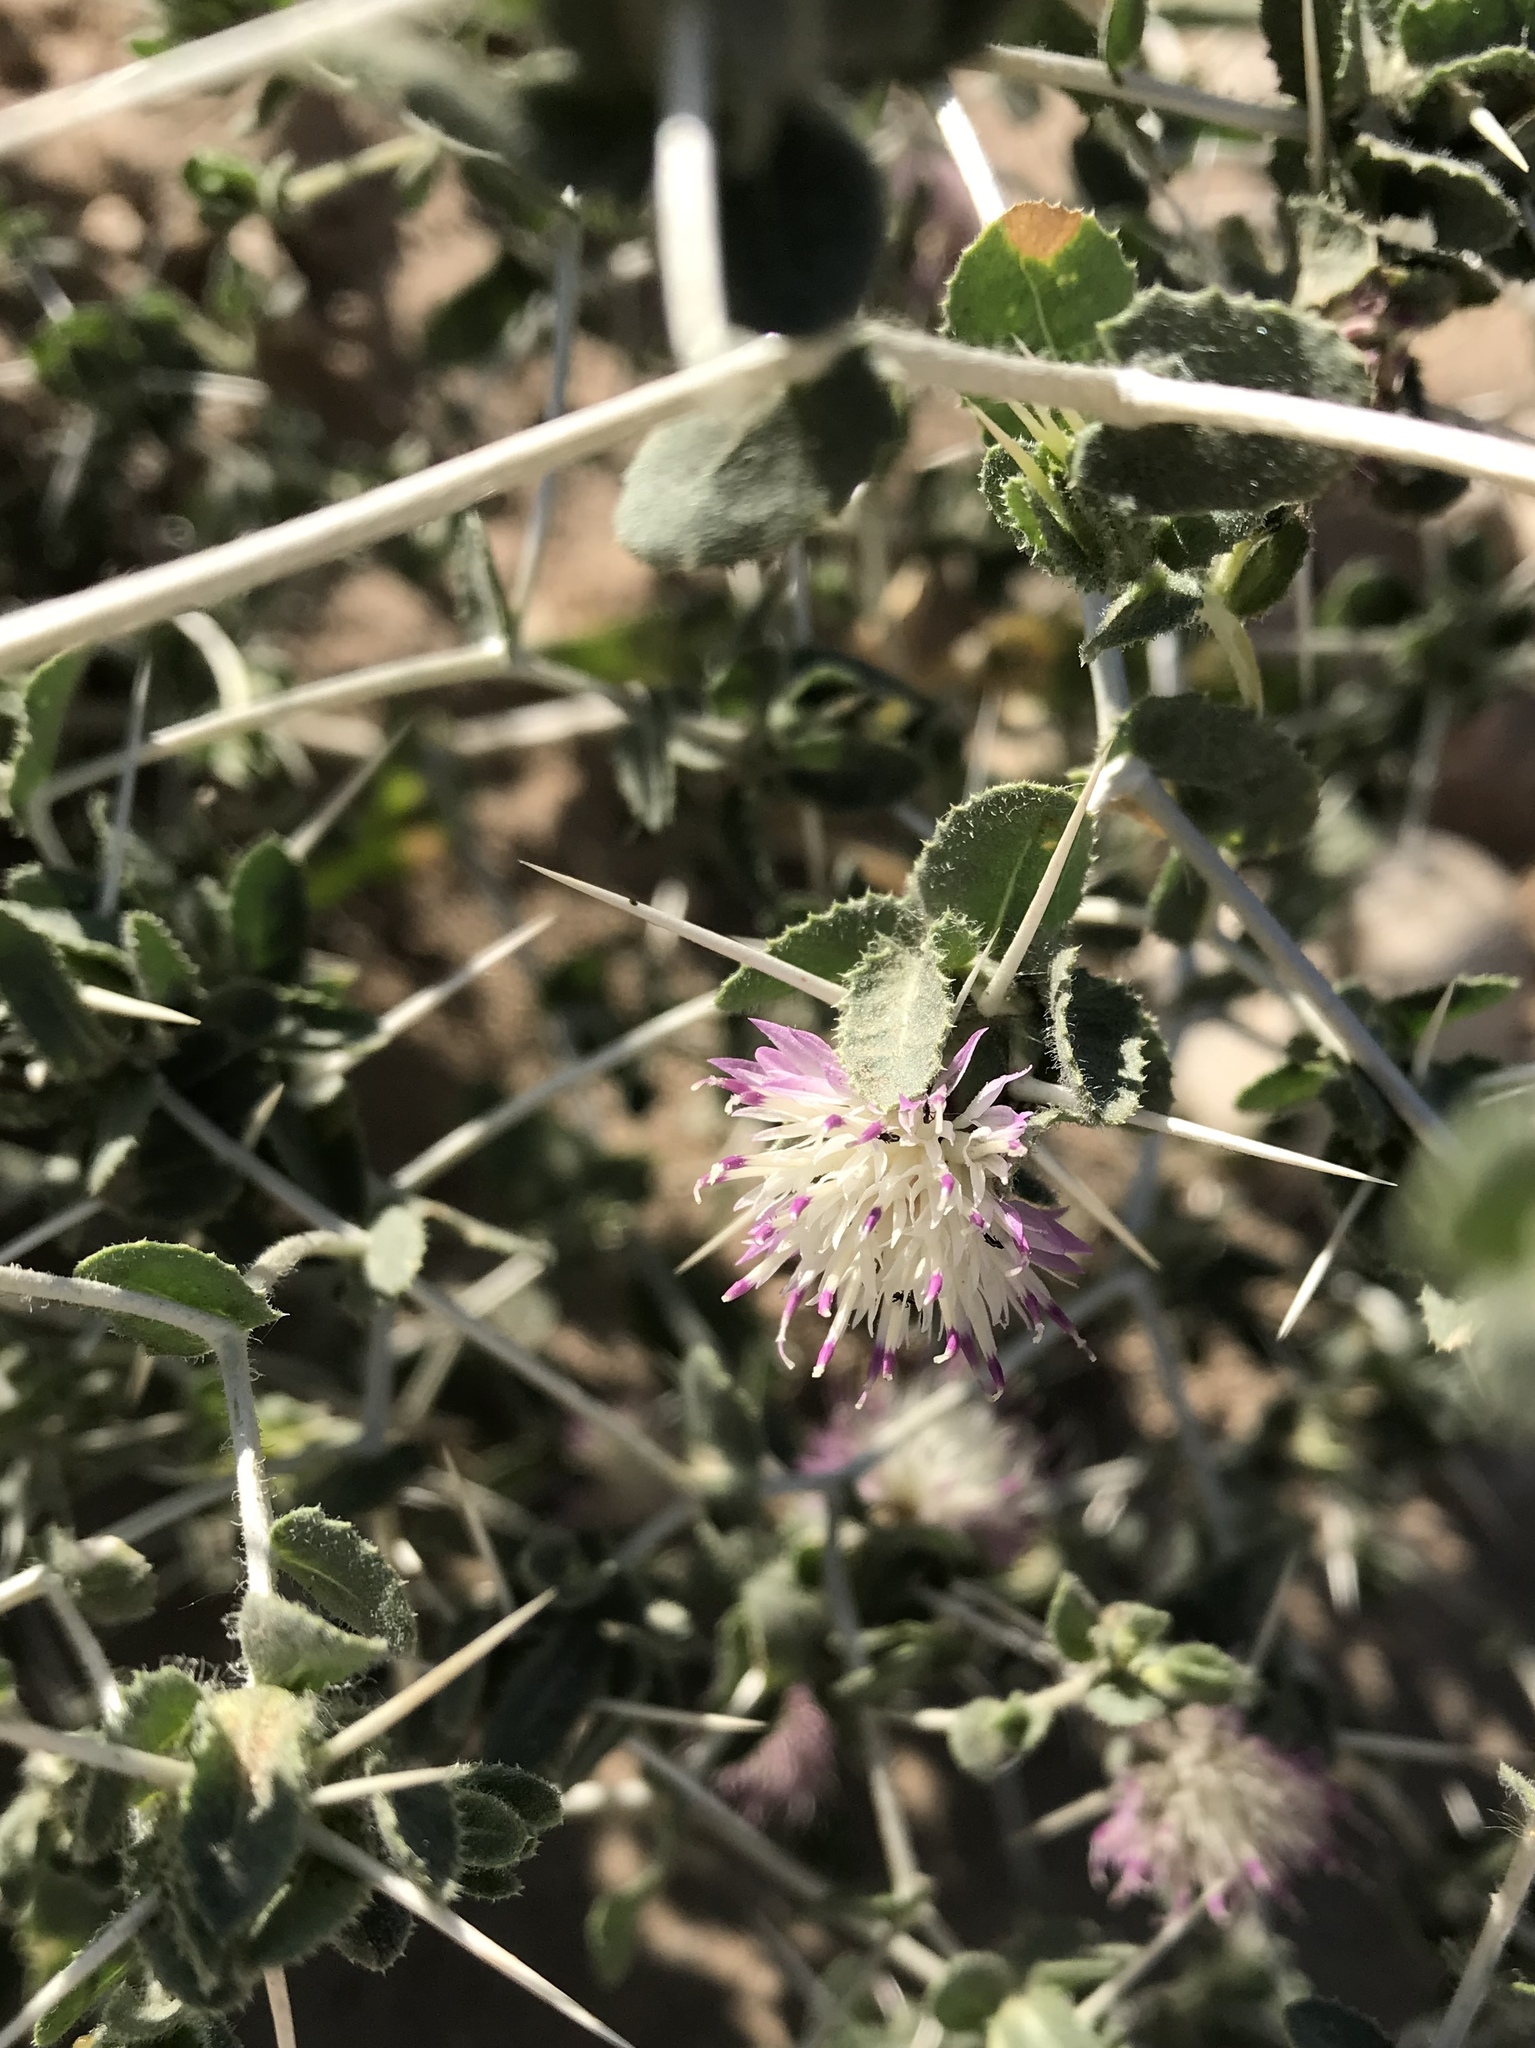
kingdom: Plantae
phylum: Tracheophyta
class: Magnoliopsida
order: Asterales
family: Asteraceae
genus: Centaurea
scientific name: Centaurea bruguierana
